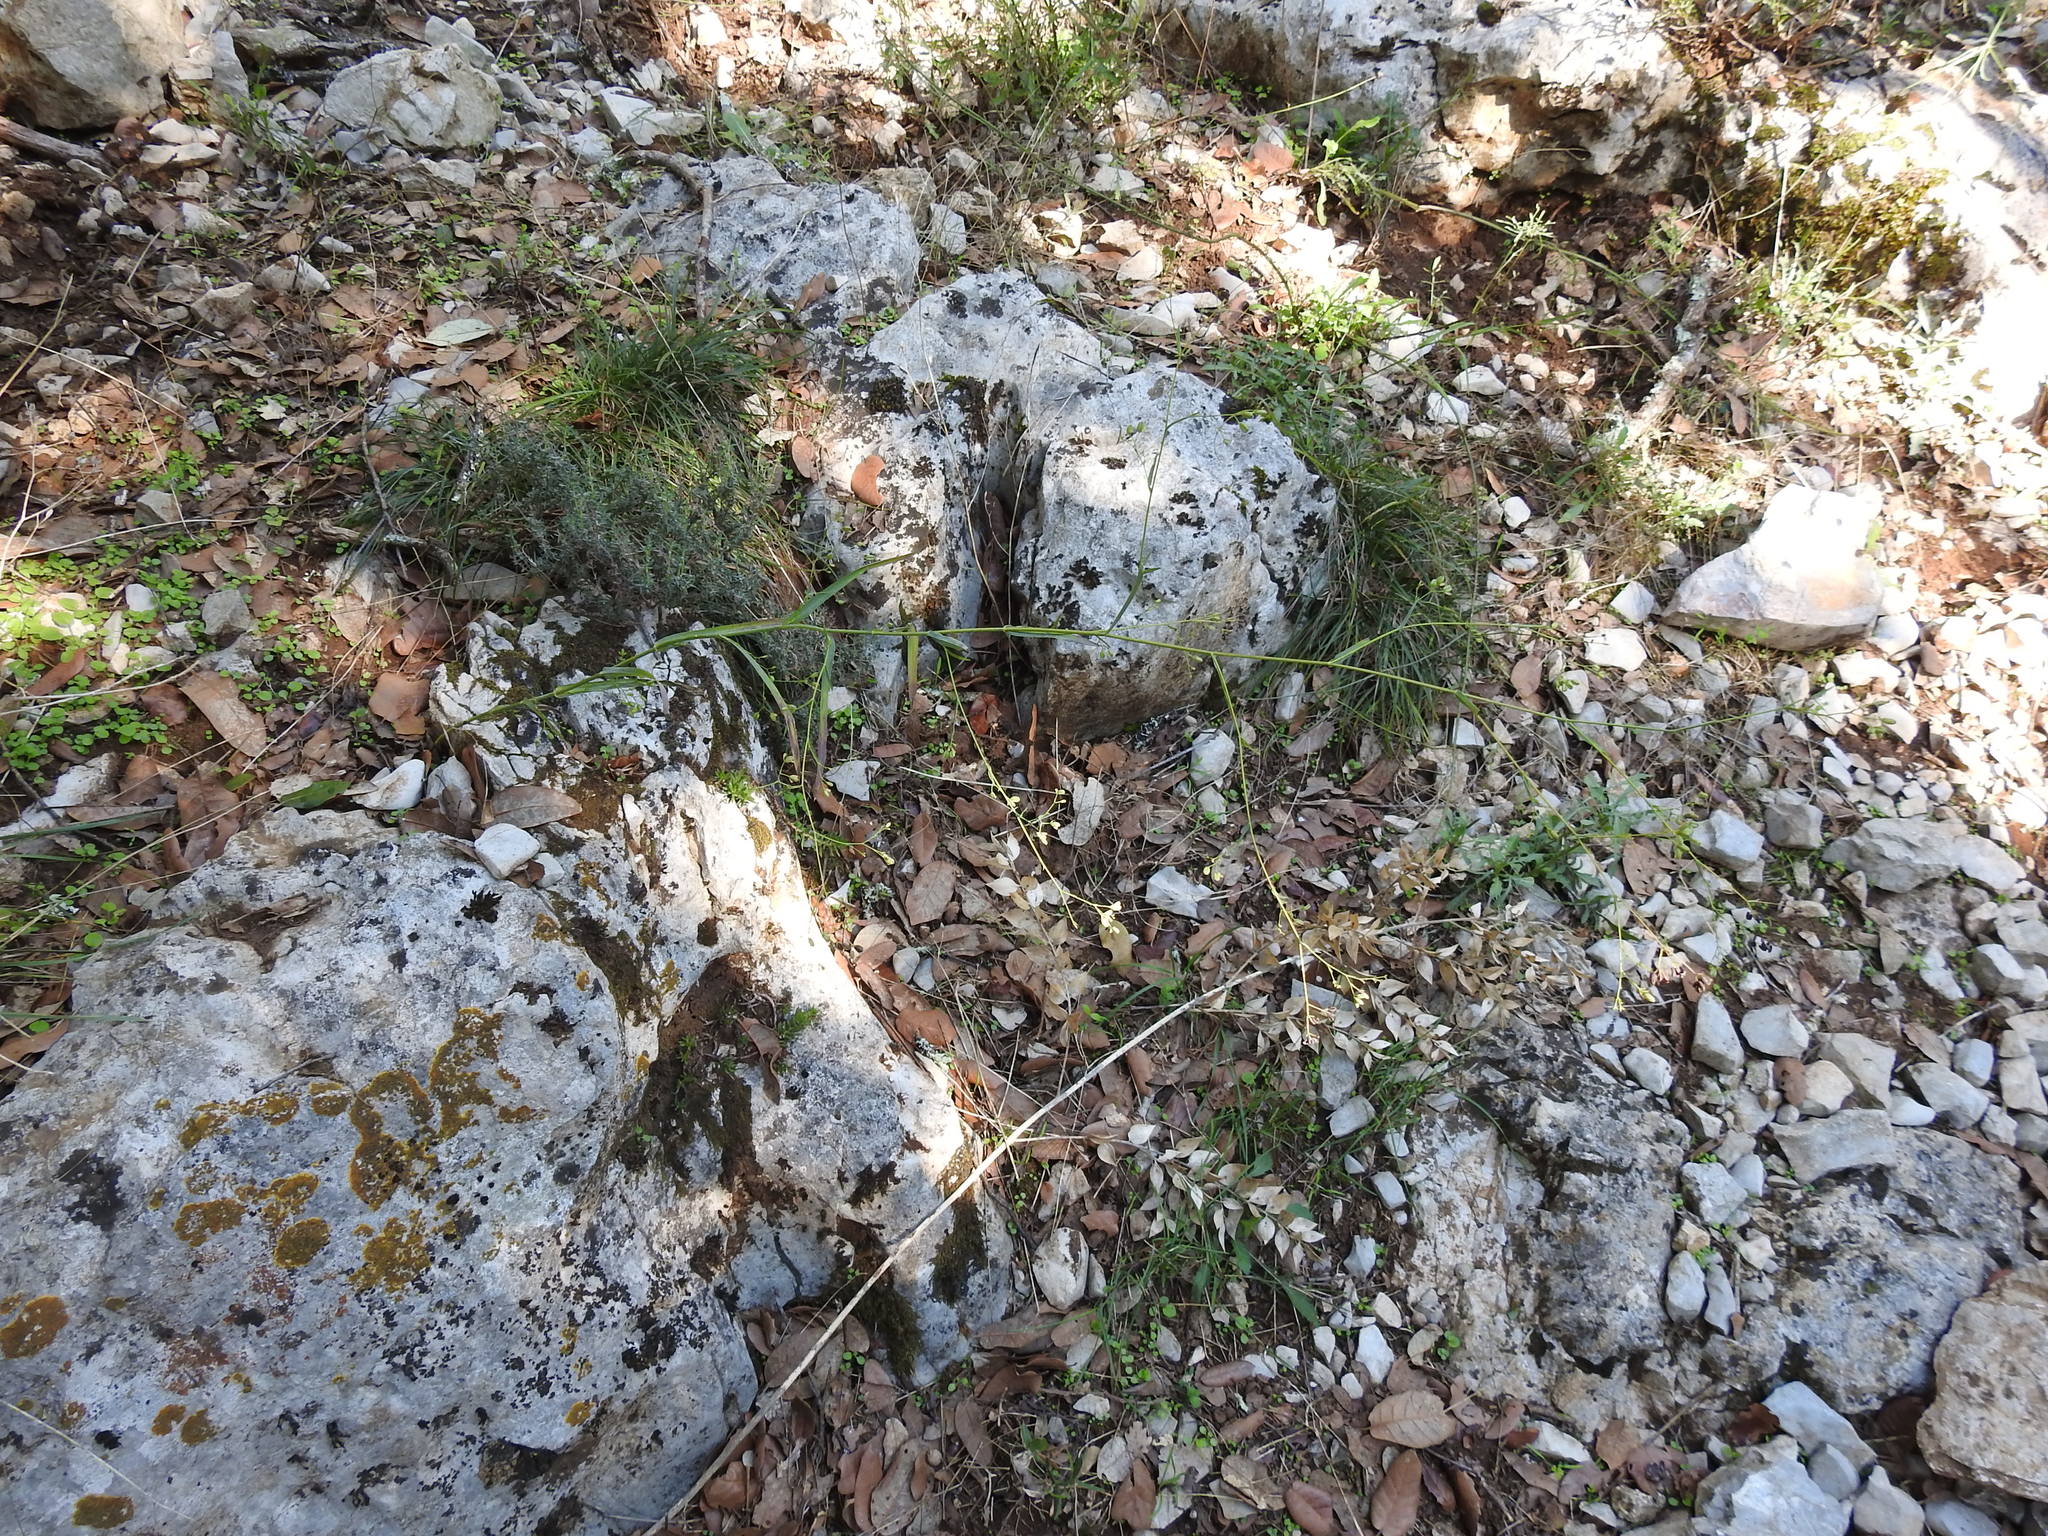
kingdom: Plantae
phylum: Tracheophyta
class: Magnoliopsida
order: Apiales
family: Apiaceae
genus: Bupleurum
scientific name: Bupleurum praealtum
